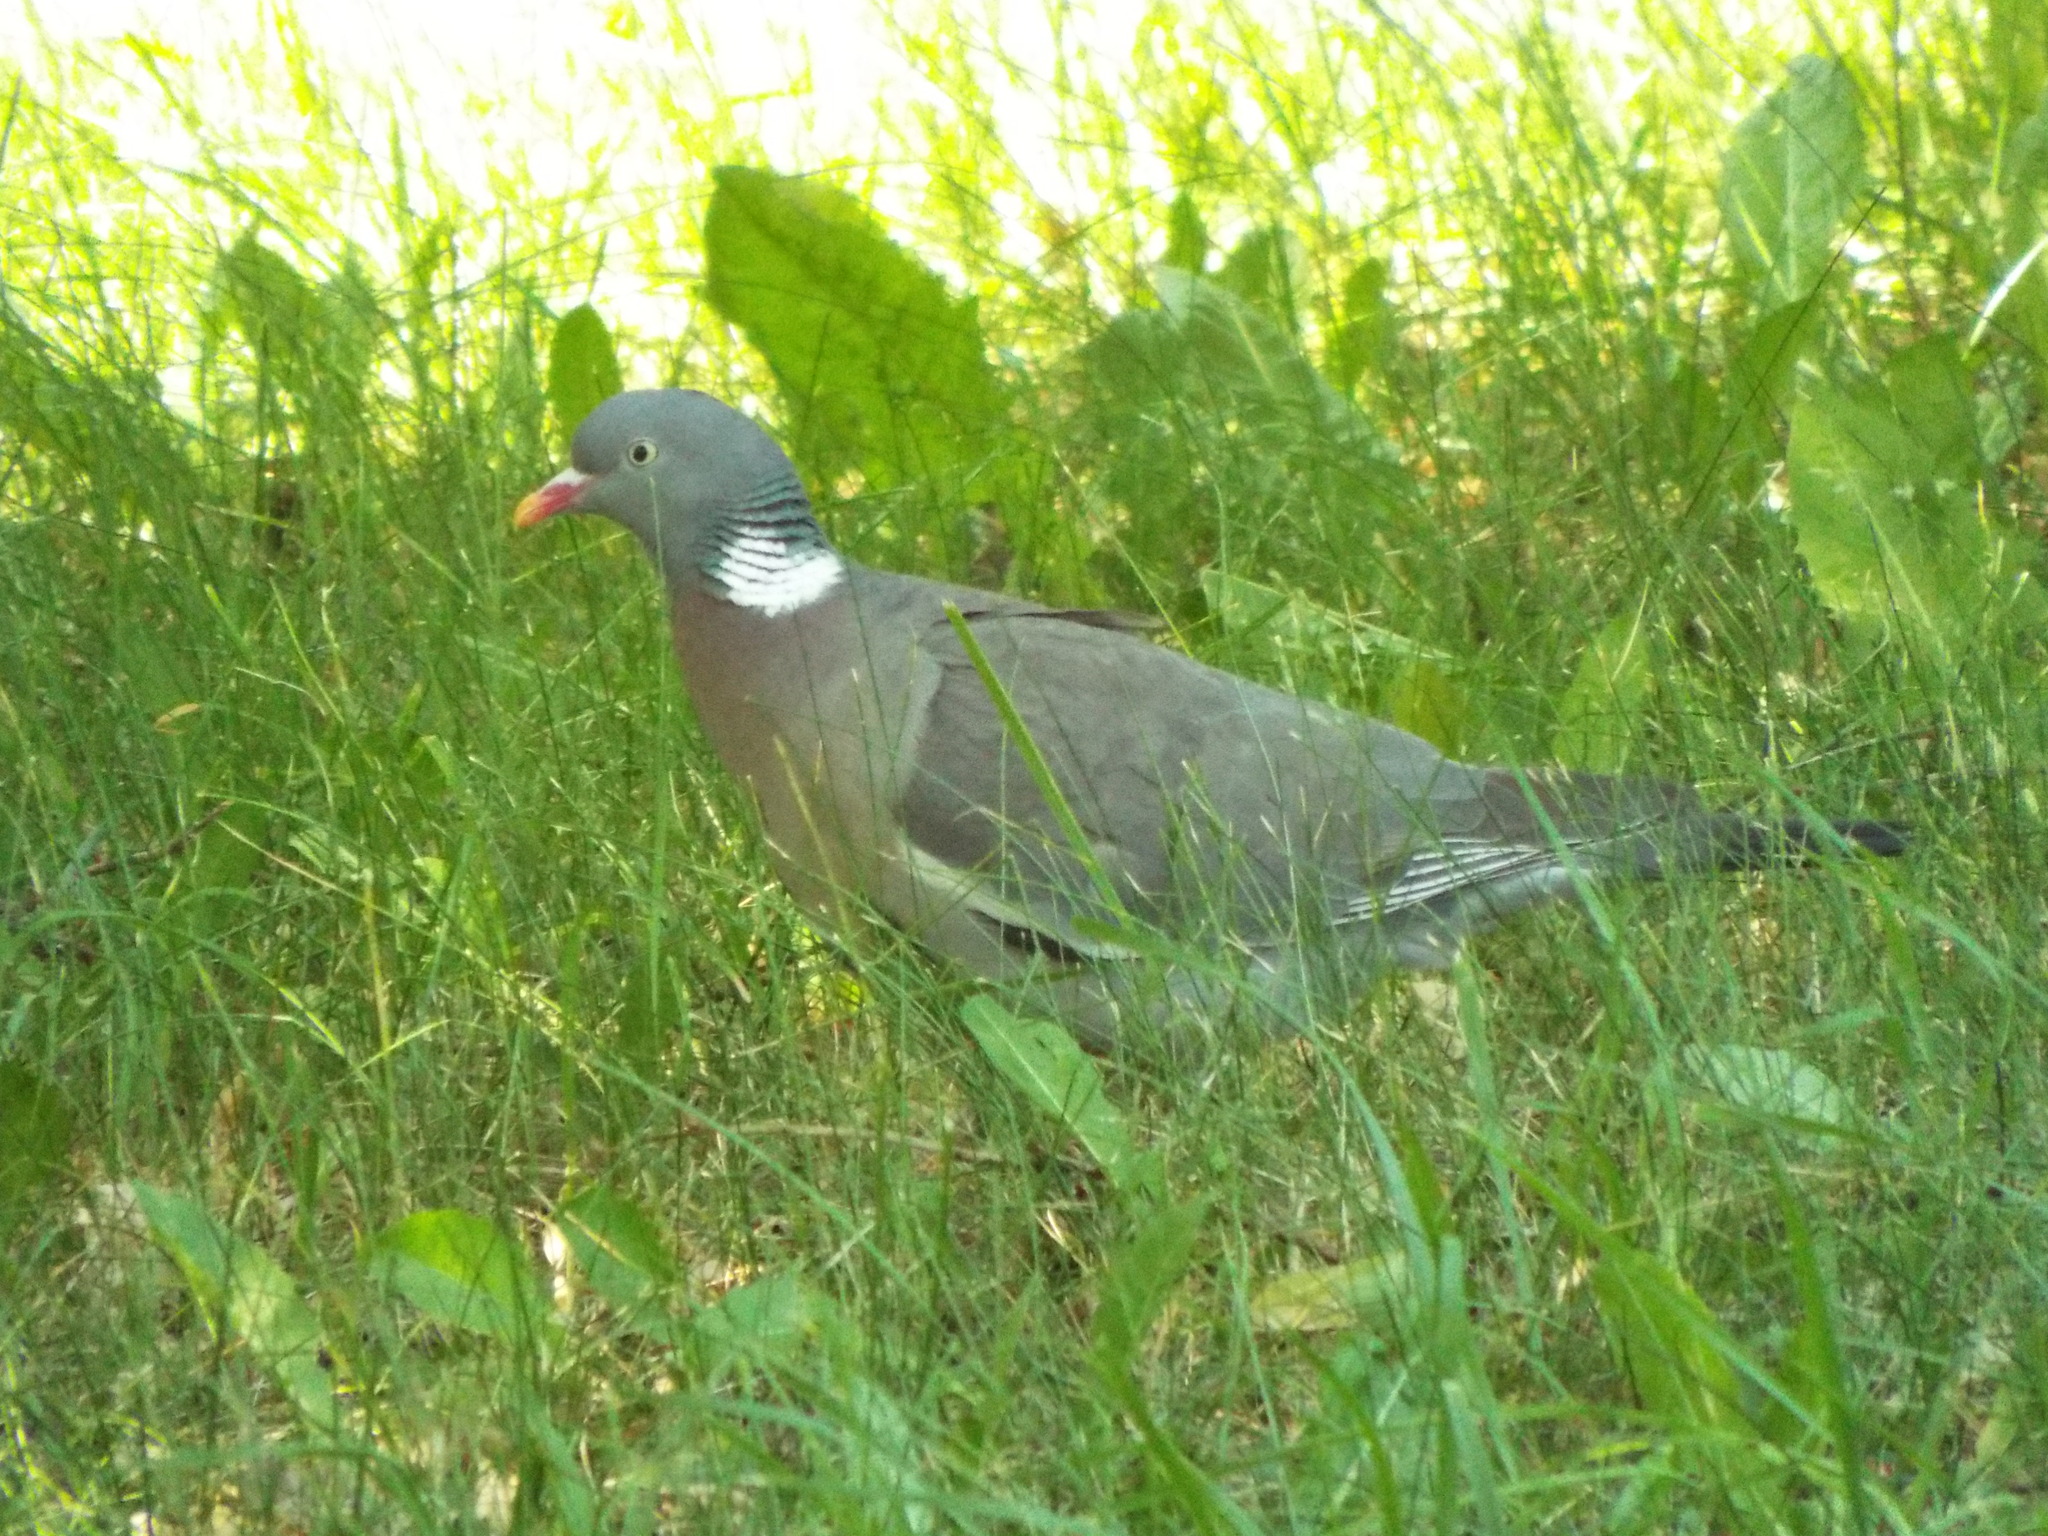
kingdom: Animalia
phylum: Chordata
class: Aves
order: Columbiformes
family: Columbidae
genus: Columba
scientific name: Columba palumbus
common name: Common wood pigeon
